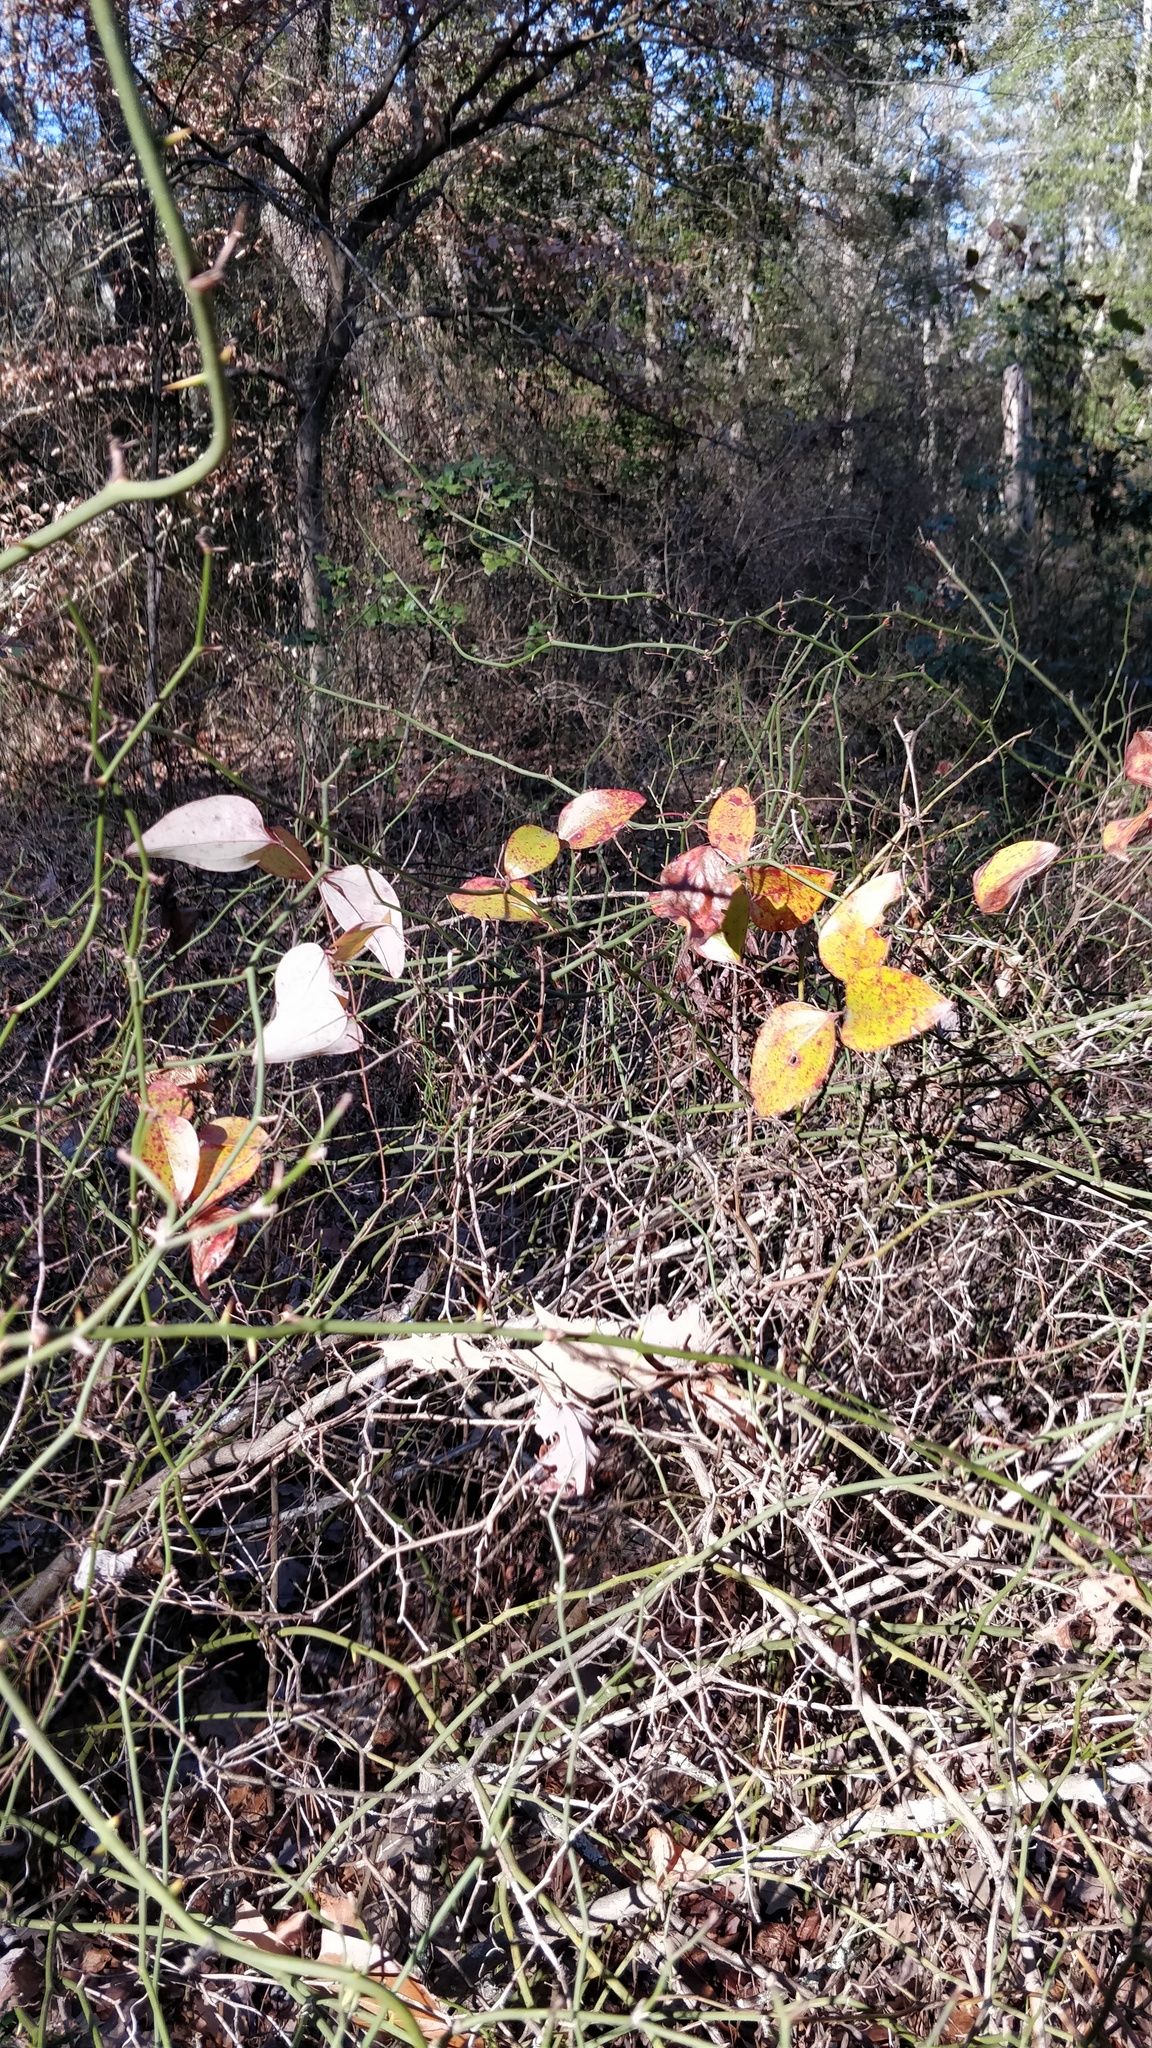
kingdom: Plantae
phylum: Tracheophyta
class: Liliopsida
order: Liliales
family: Smilacaceae
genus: Smilax
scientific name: Smilax glauca
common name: Cat greenbrier
